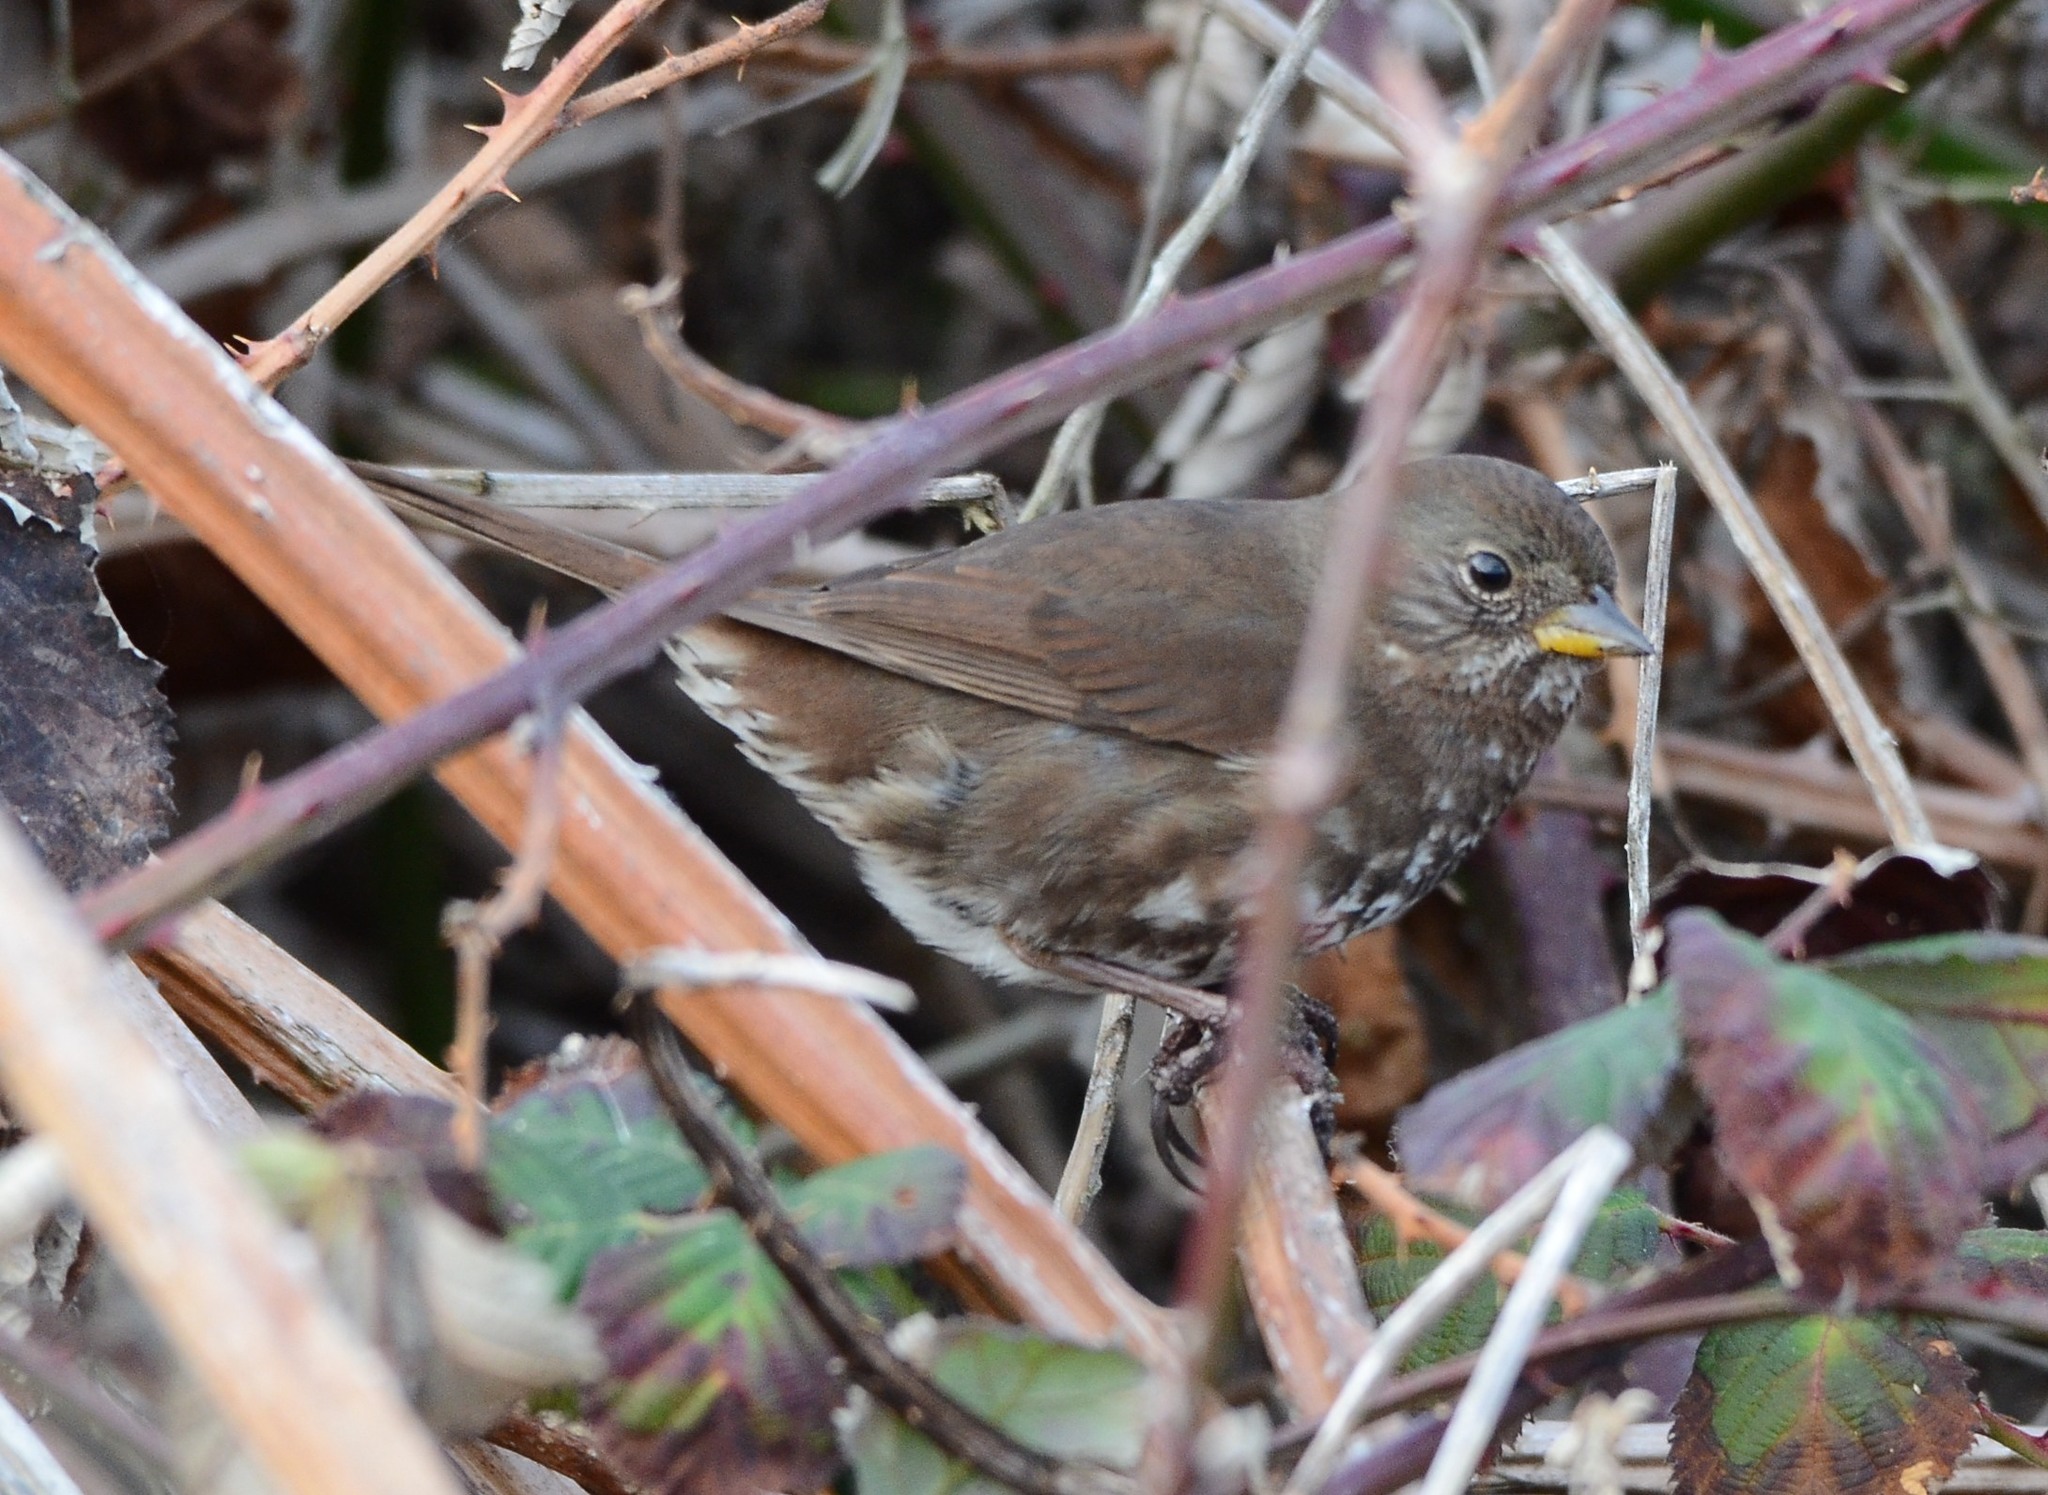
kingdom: Animalia
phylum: Chordata
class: Aves
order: Passeriformes
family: Passerellidae
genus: Passerella
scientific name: Passerella iliaca
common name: Fox sparrow
